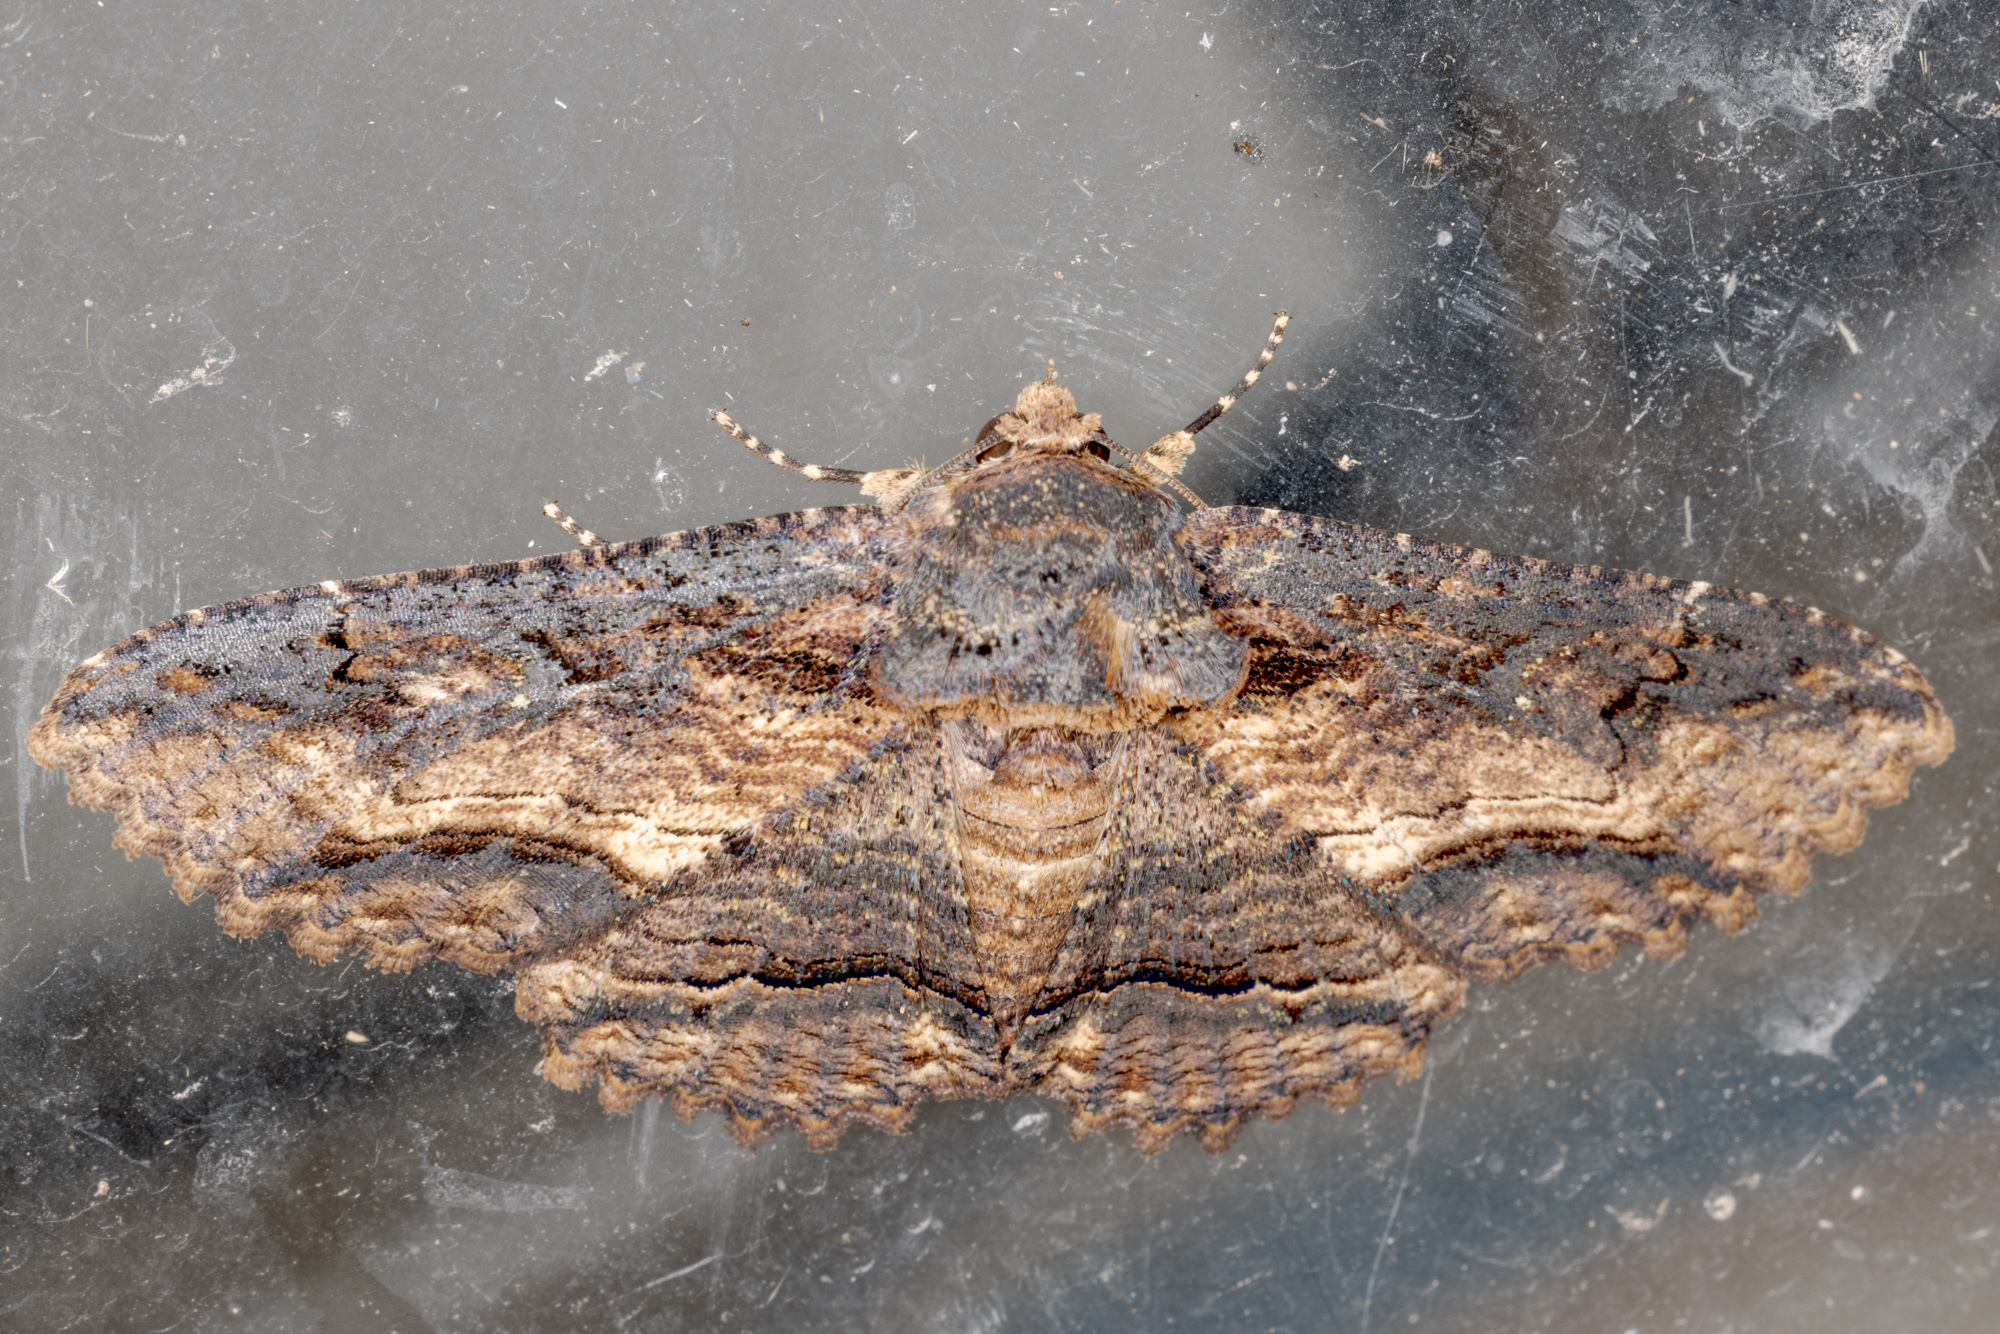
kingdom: Animalia
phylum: Arthropoda
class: Insecta
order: Lepidoptera
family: Erebidae
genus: Zale
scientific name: Zale lunata
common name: Lunate zale moth
